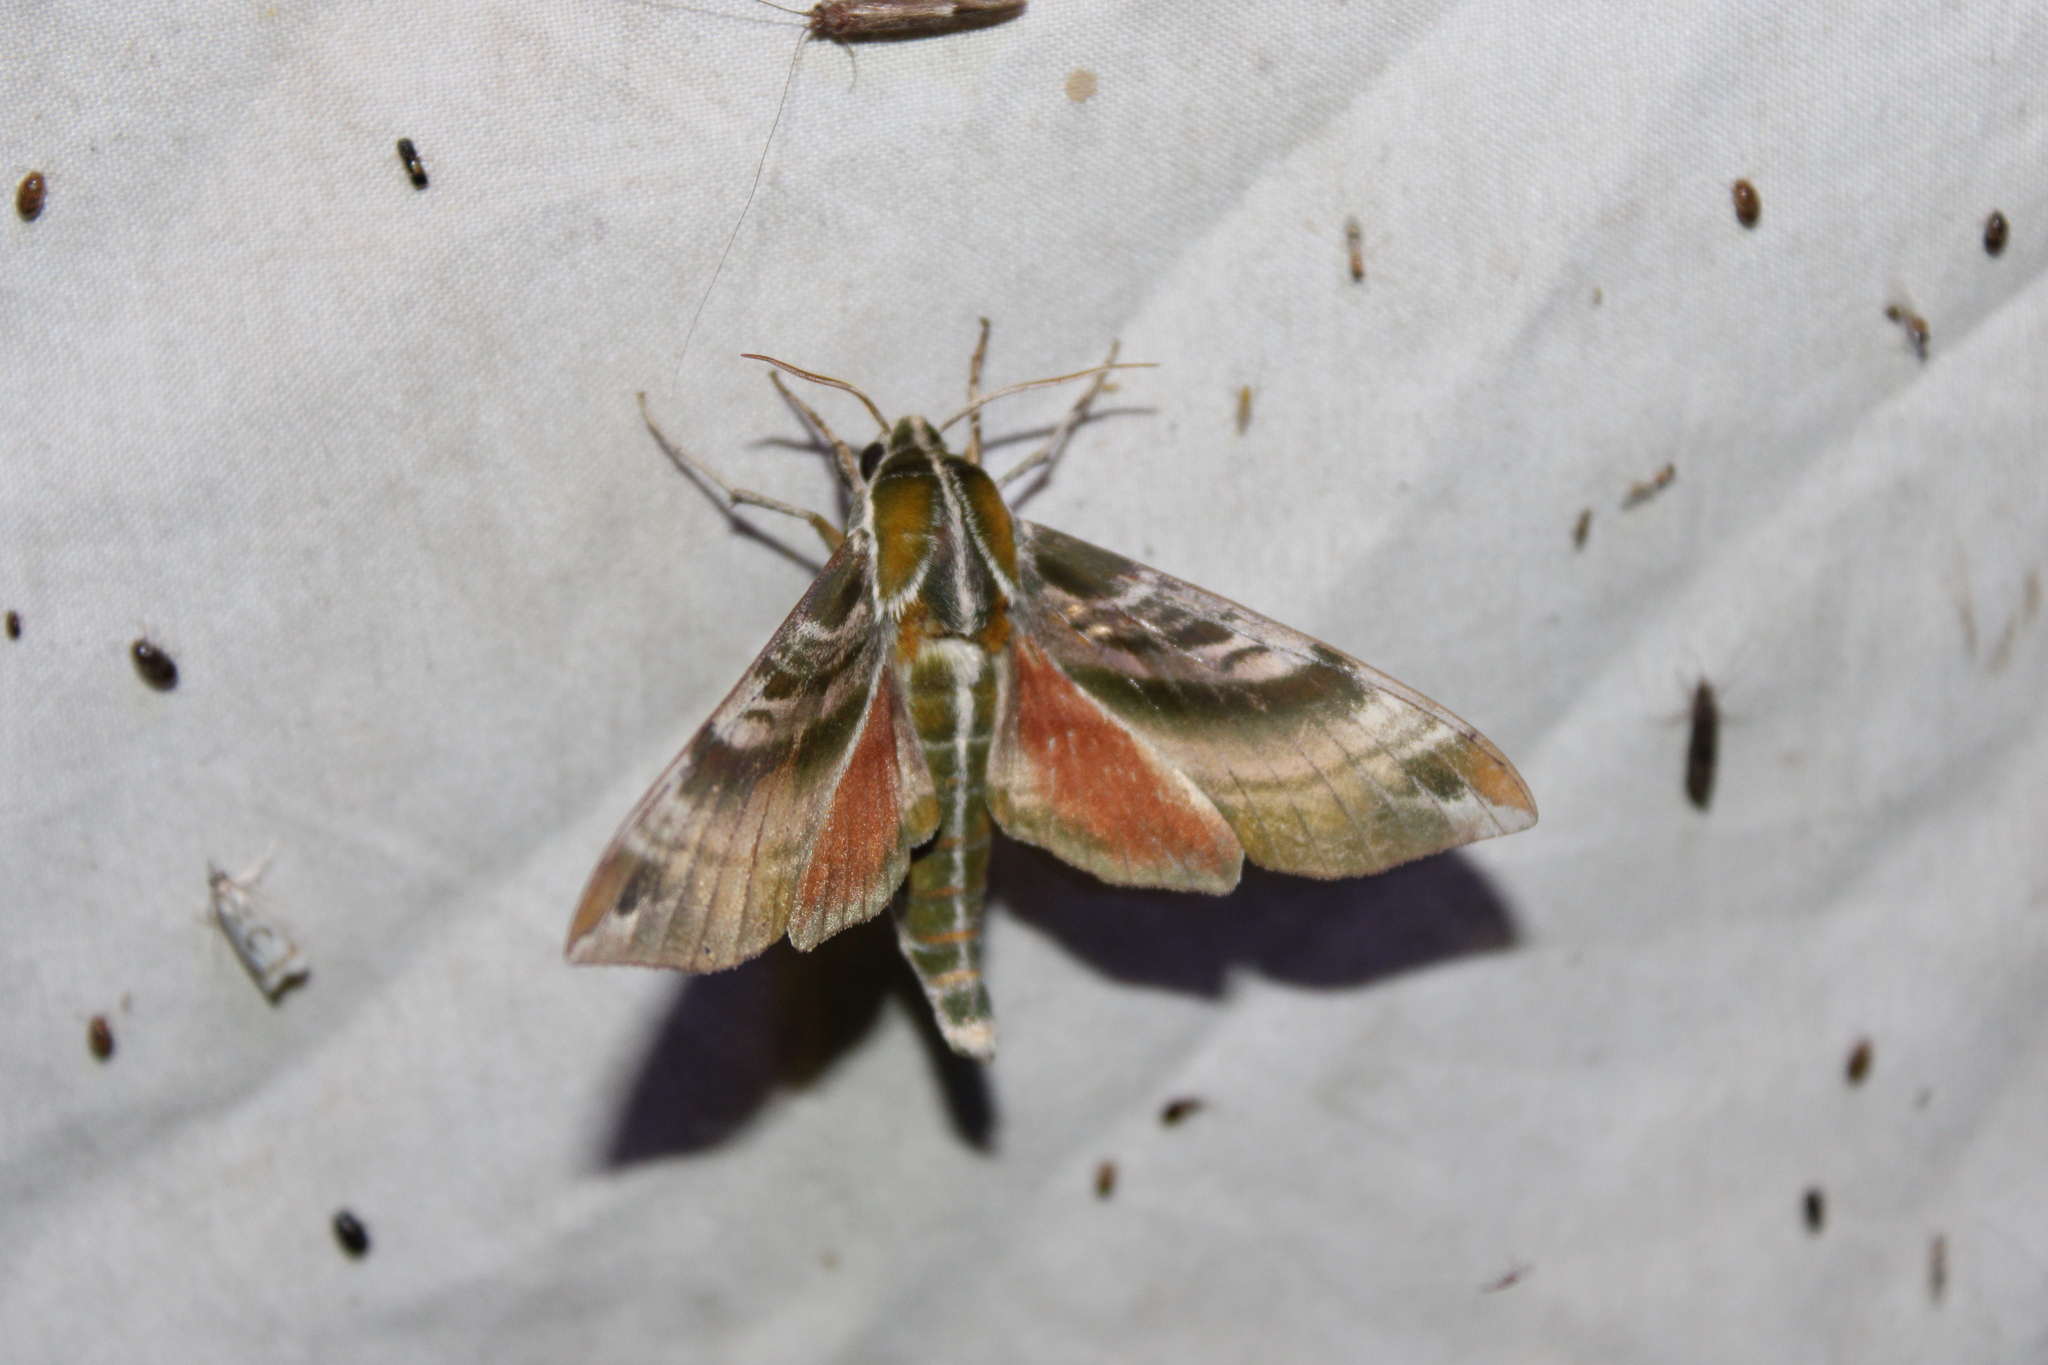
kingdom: Animalia
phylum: Arthropoda
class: Insecta
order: Lepidoptera
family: Sphingidae
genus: Darapsa
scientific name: Darapsa versicolor
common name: Hydrangea sphinx
